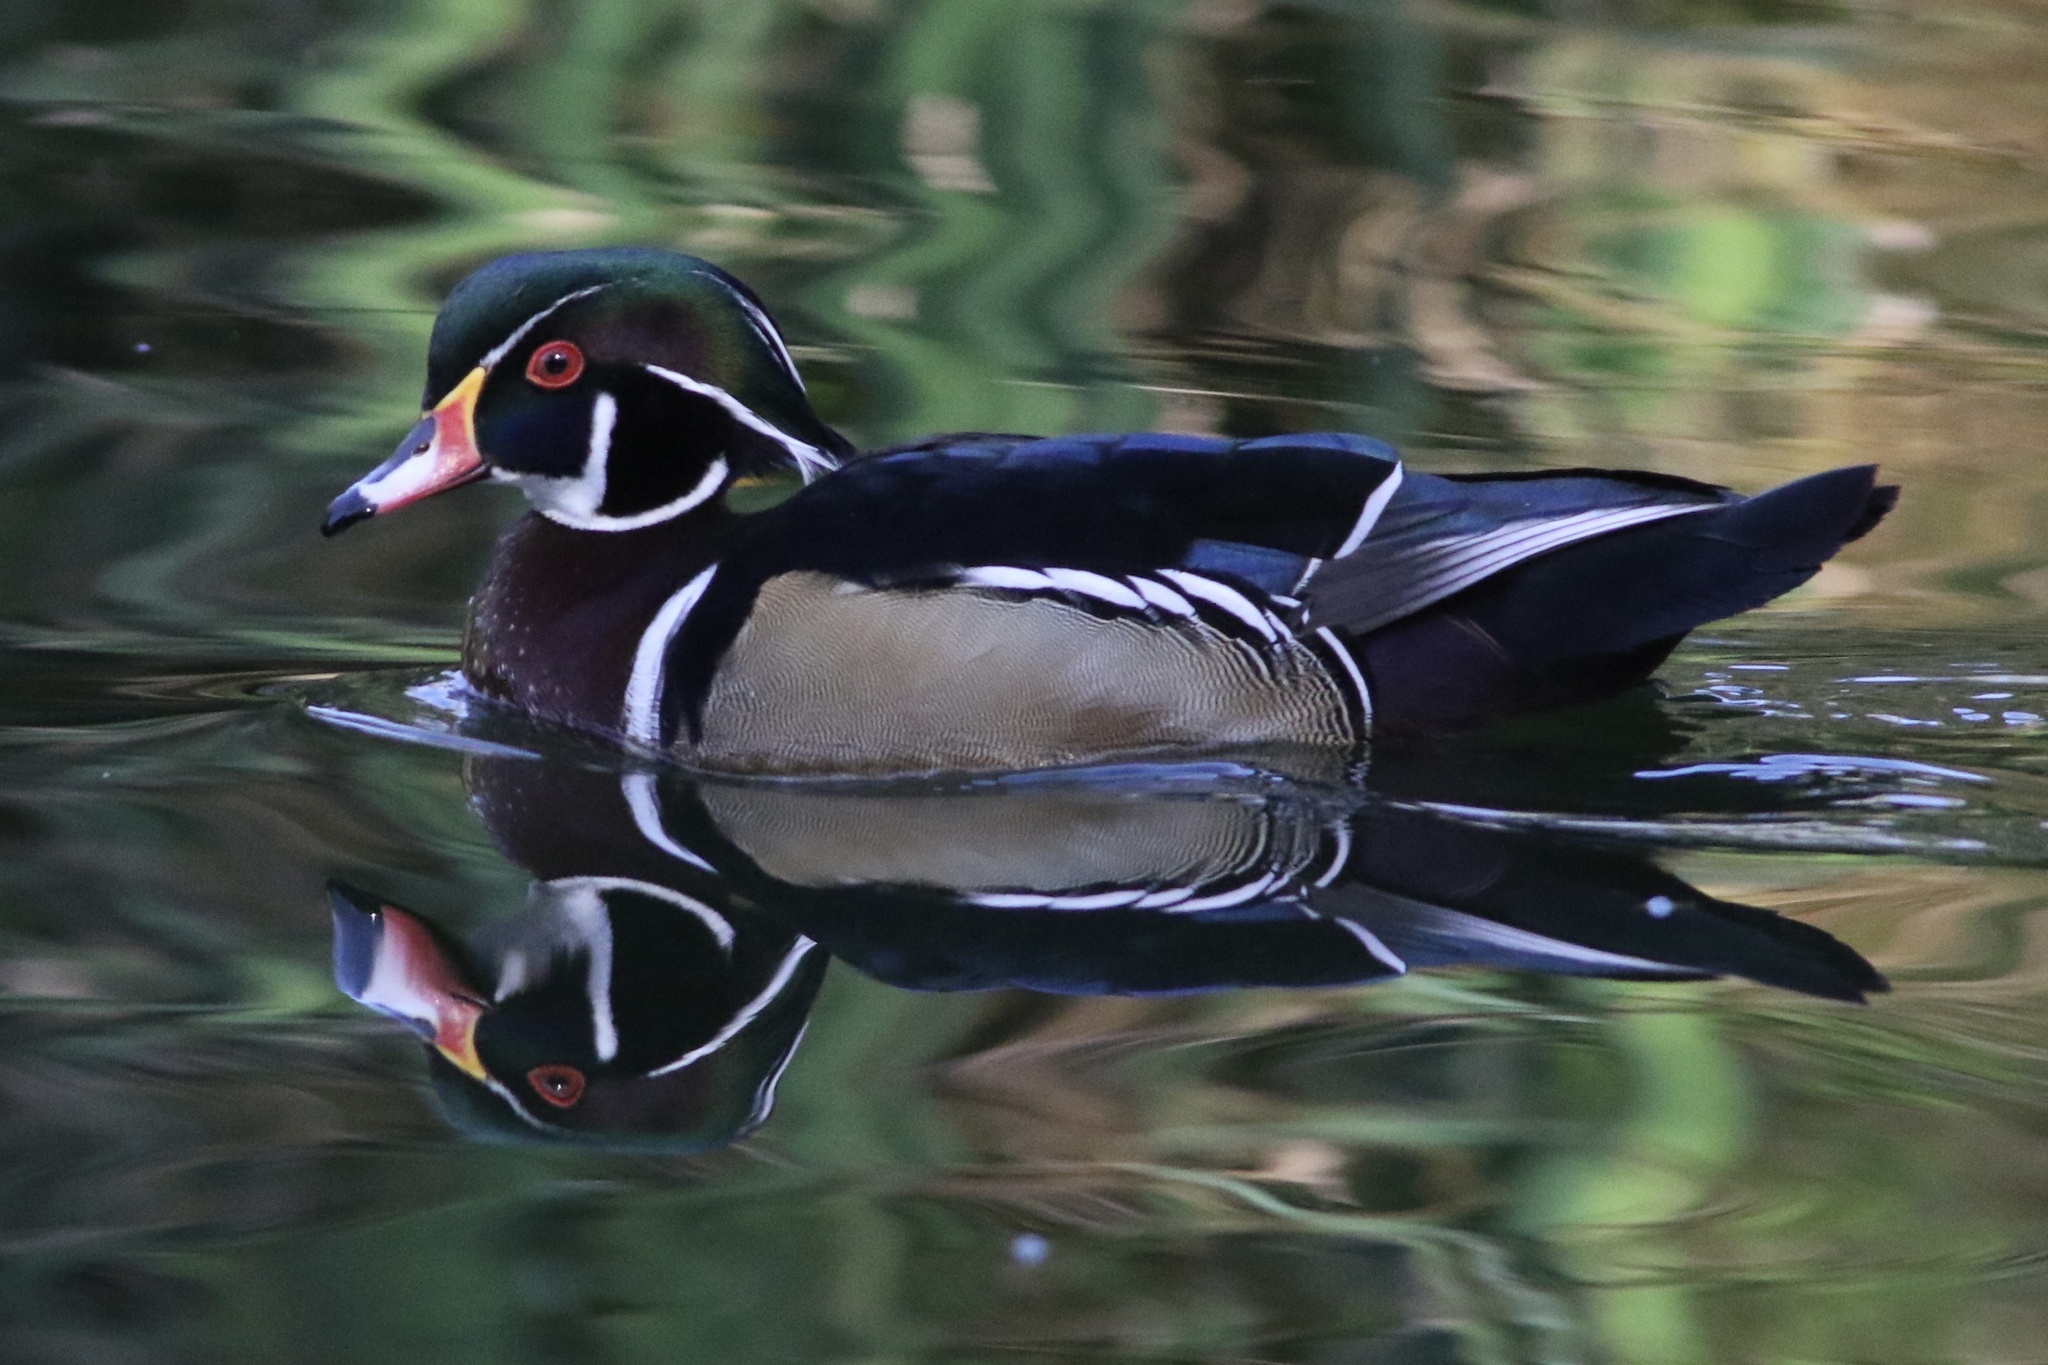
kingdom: Animalia
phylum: Chordata
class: Aves
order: Anseriformes
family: Anatidae
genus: Aix
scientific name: Aix sponsa
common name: Wood duck
